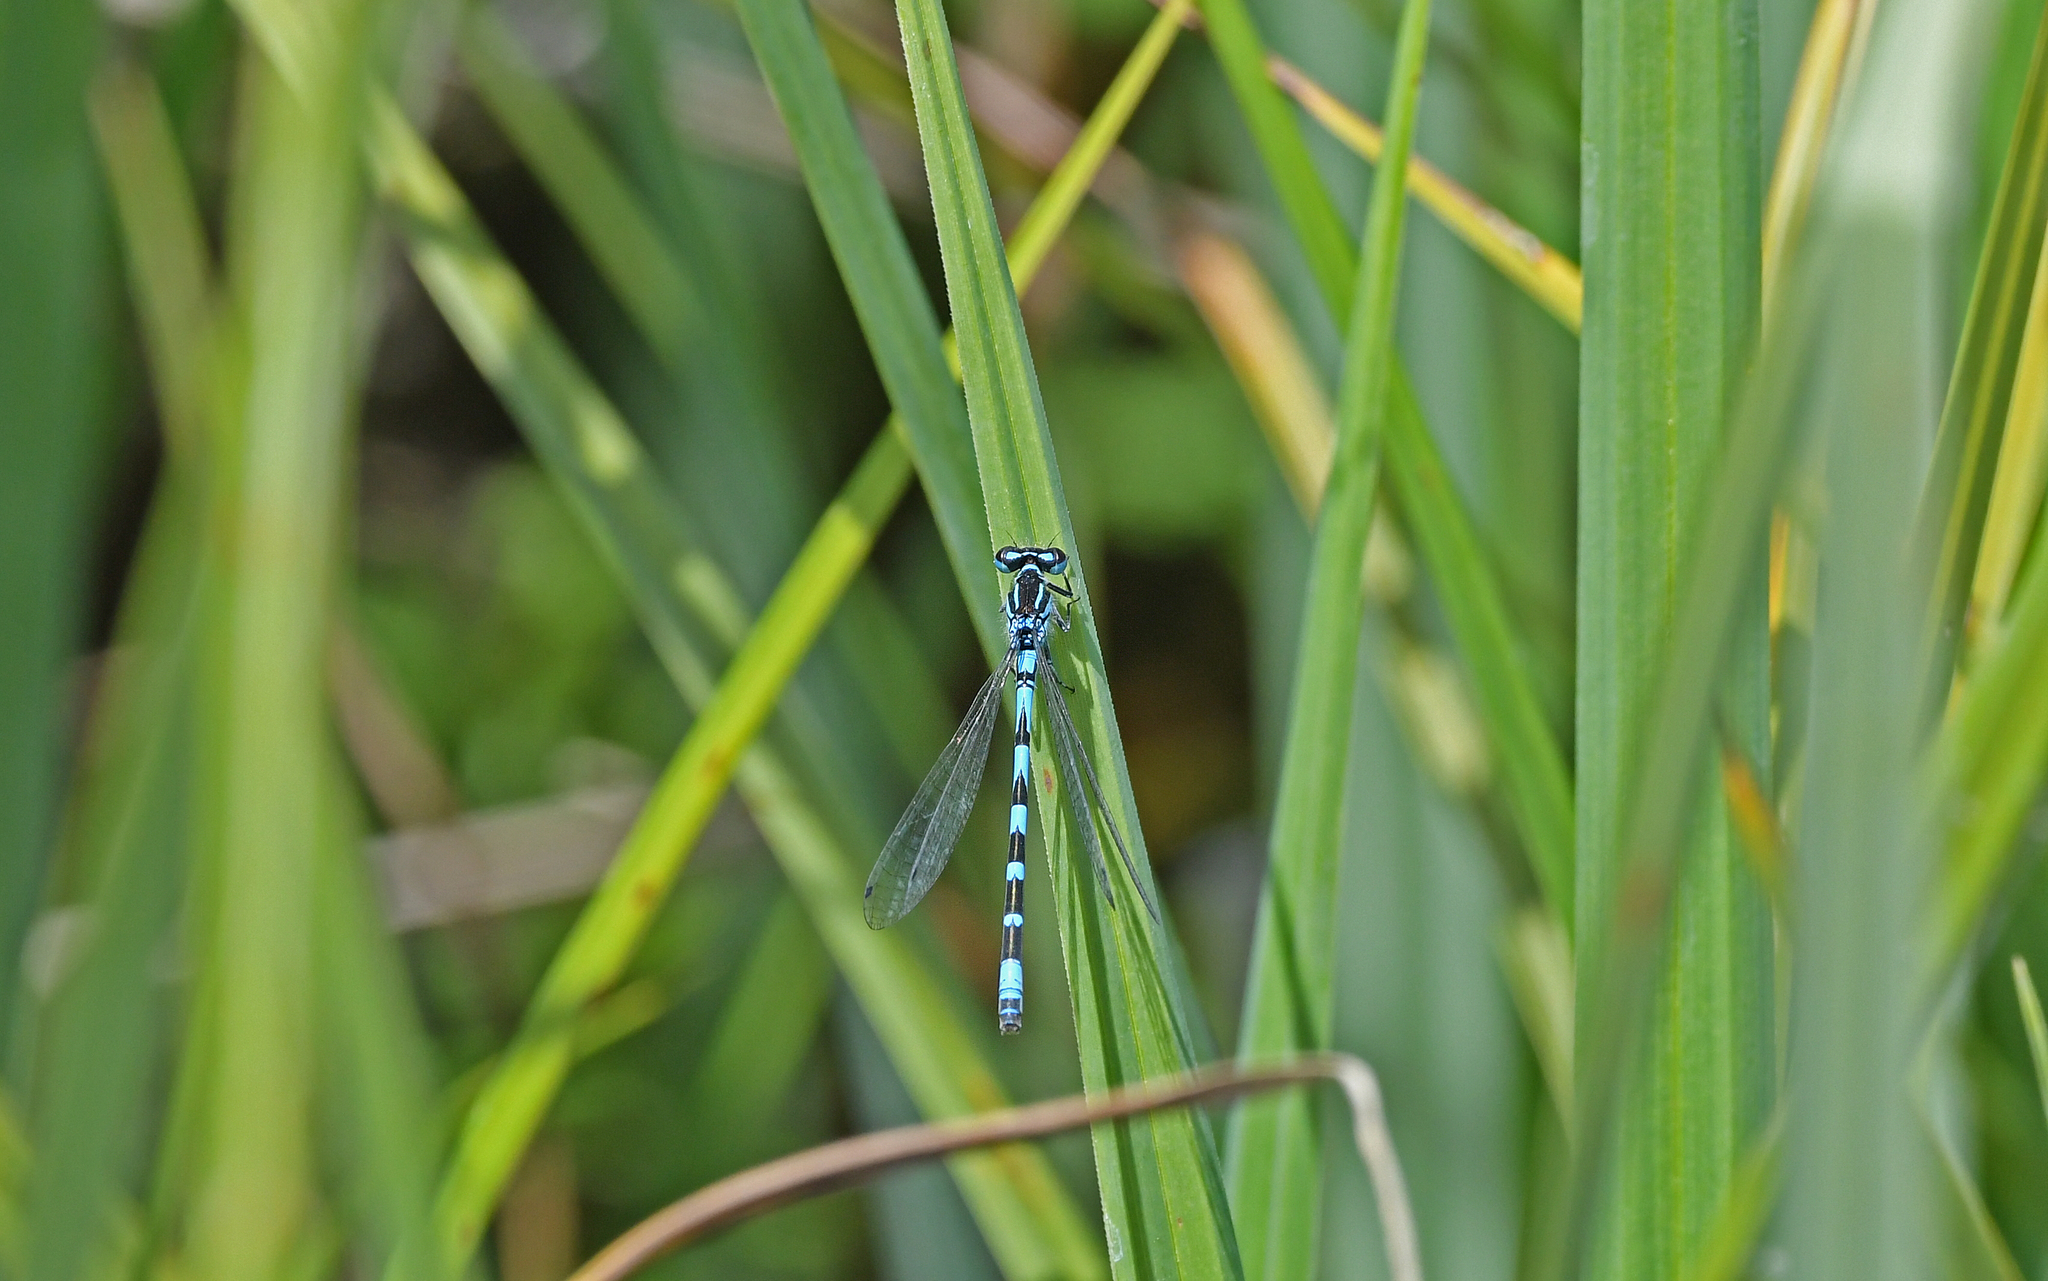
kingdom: Animalia
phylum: Arthropoda
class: Insecta
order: Odonata
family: Coenagrionidae
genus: Coenagrion
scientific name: Coenagrion ornatum
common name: Ornate bluet
